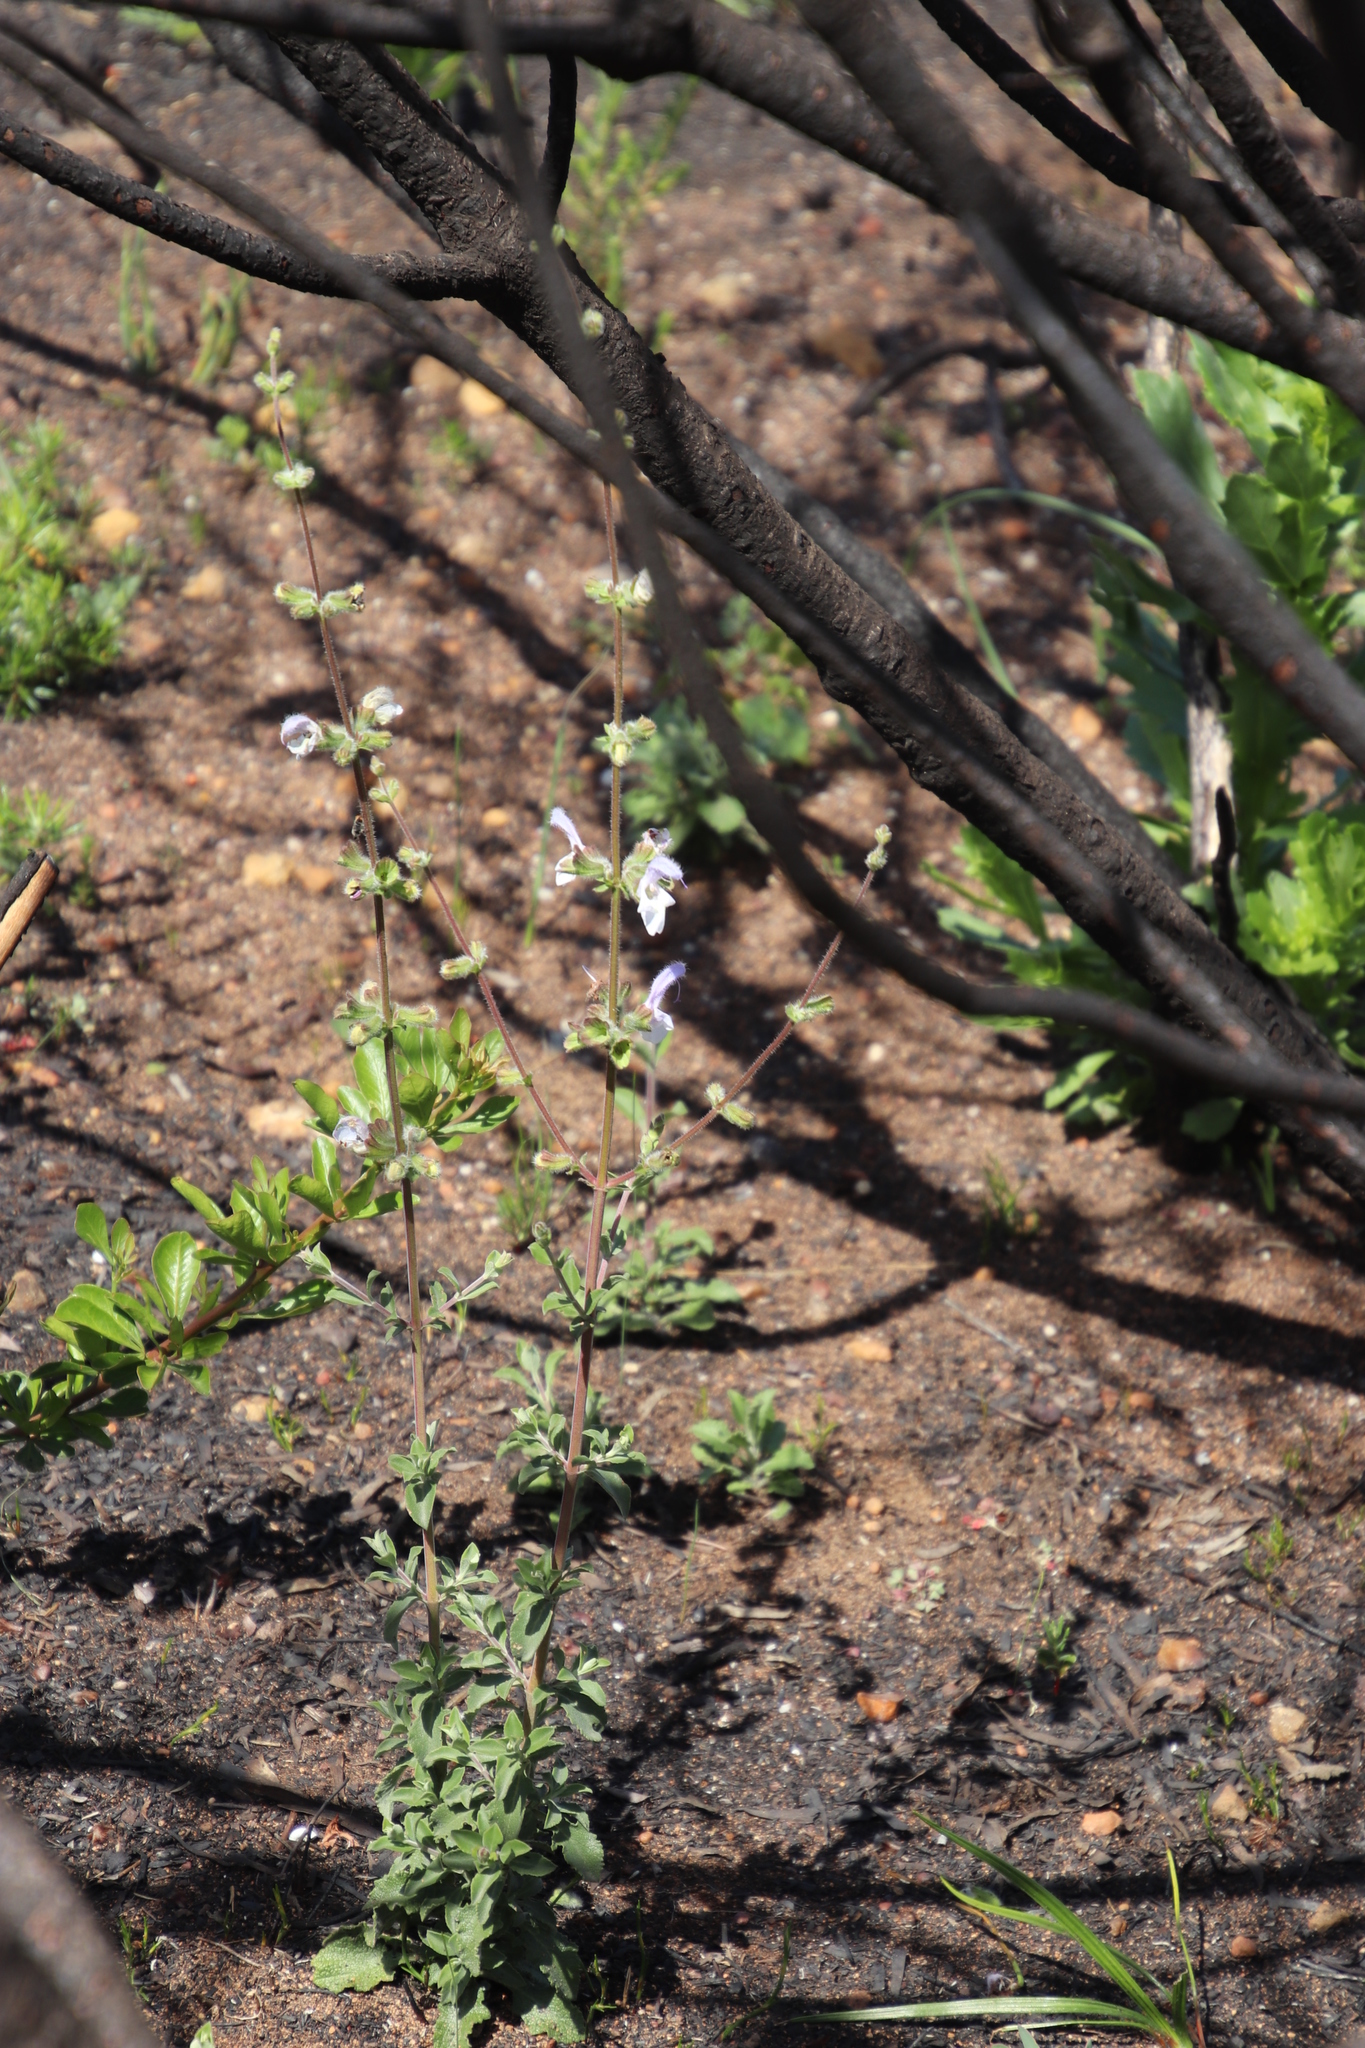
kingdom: Plantae
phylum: Tracheophyta
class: Magnoliopsida
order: Lamiales
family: Lamiaceae
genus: Salvia
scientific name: Salvia africana
